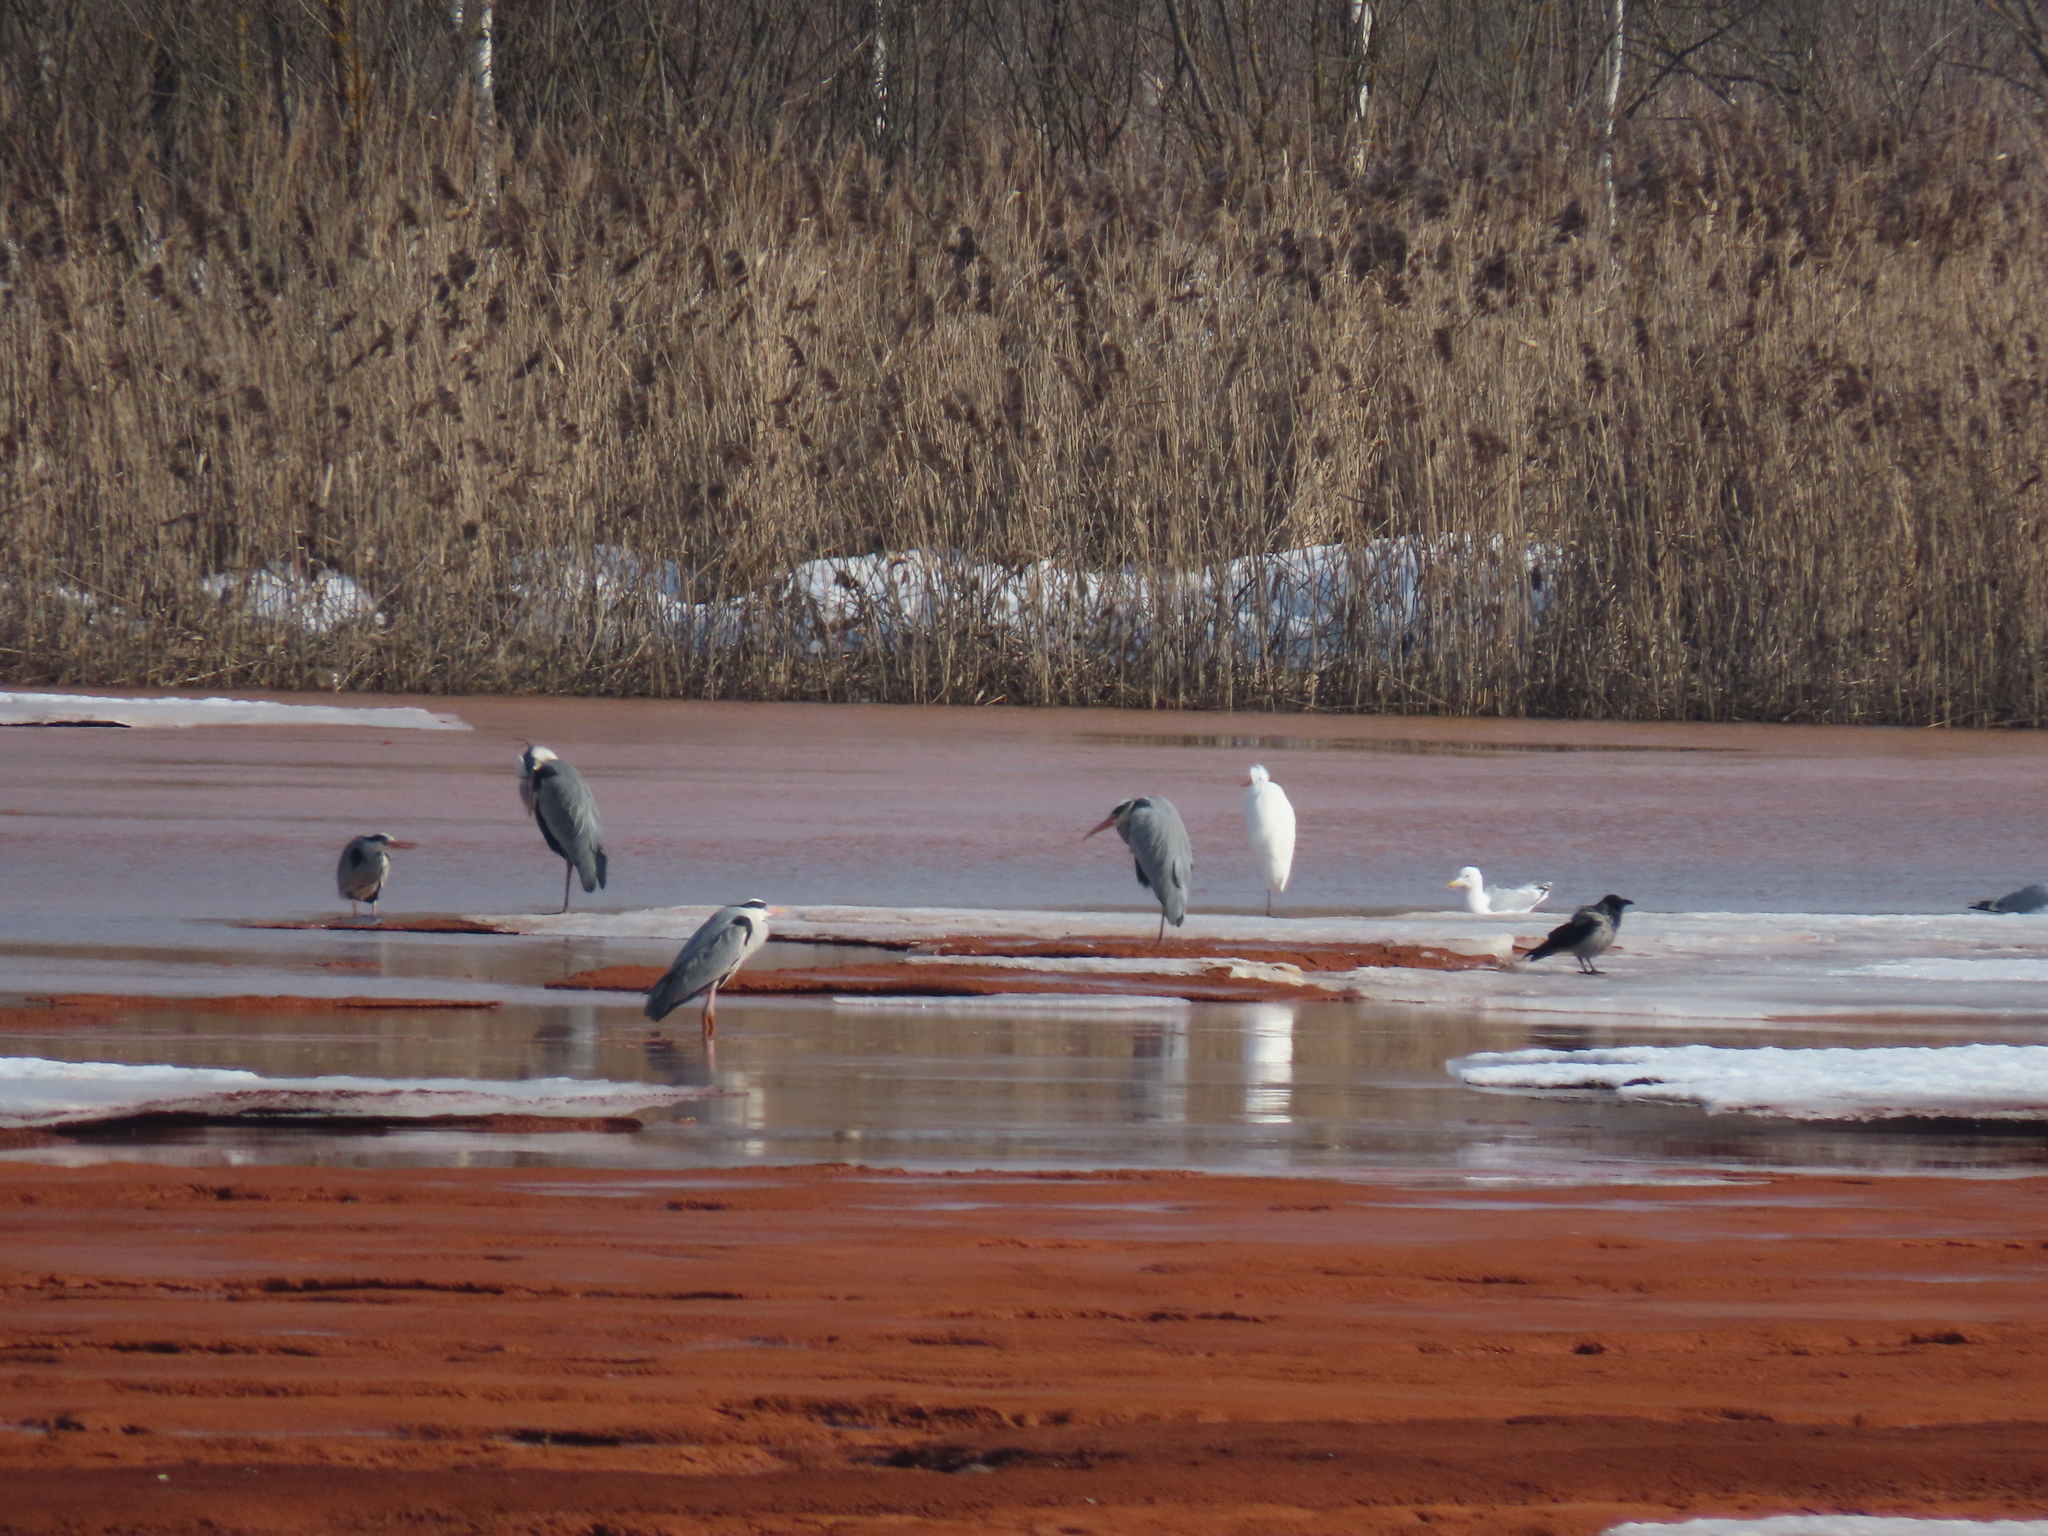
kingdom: Animalia
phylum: Chordata
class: Aves
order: Pelecaniformes
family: Ardeidae
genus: Ardea
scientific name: Ardea cinerea
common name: Grey heron
